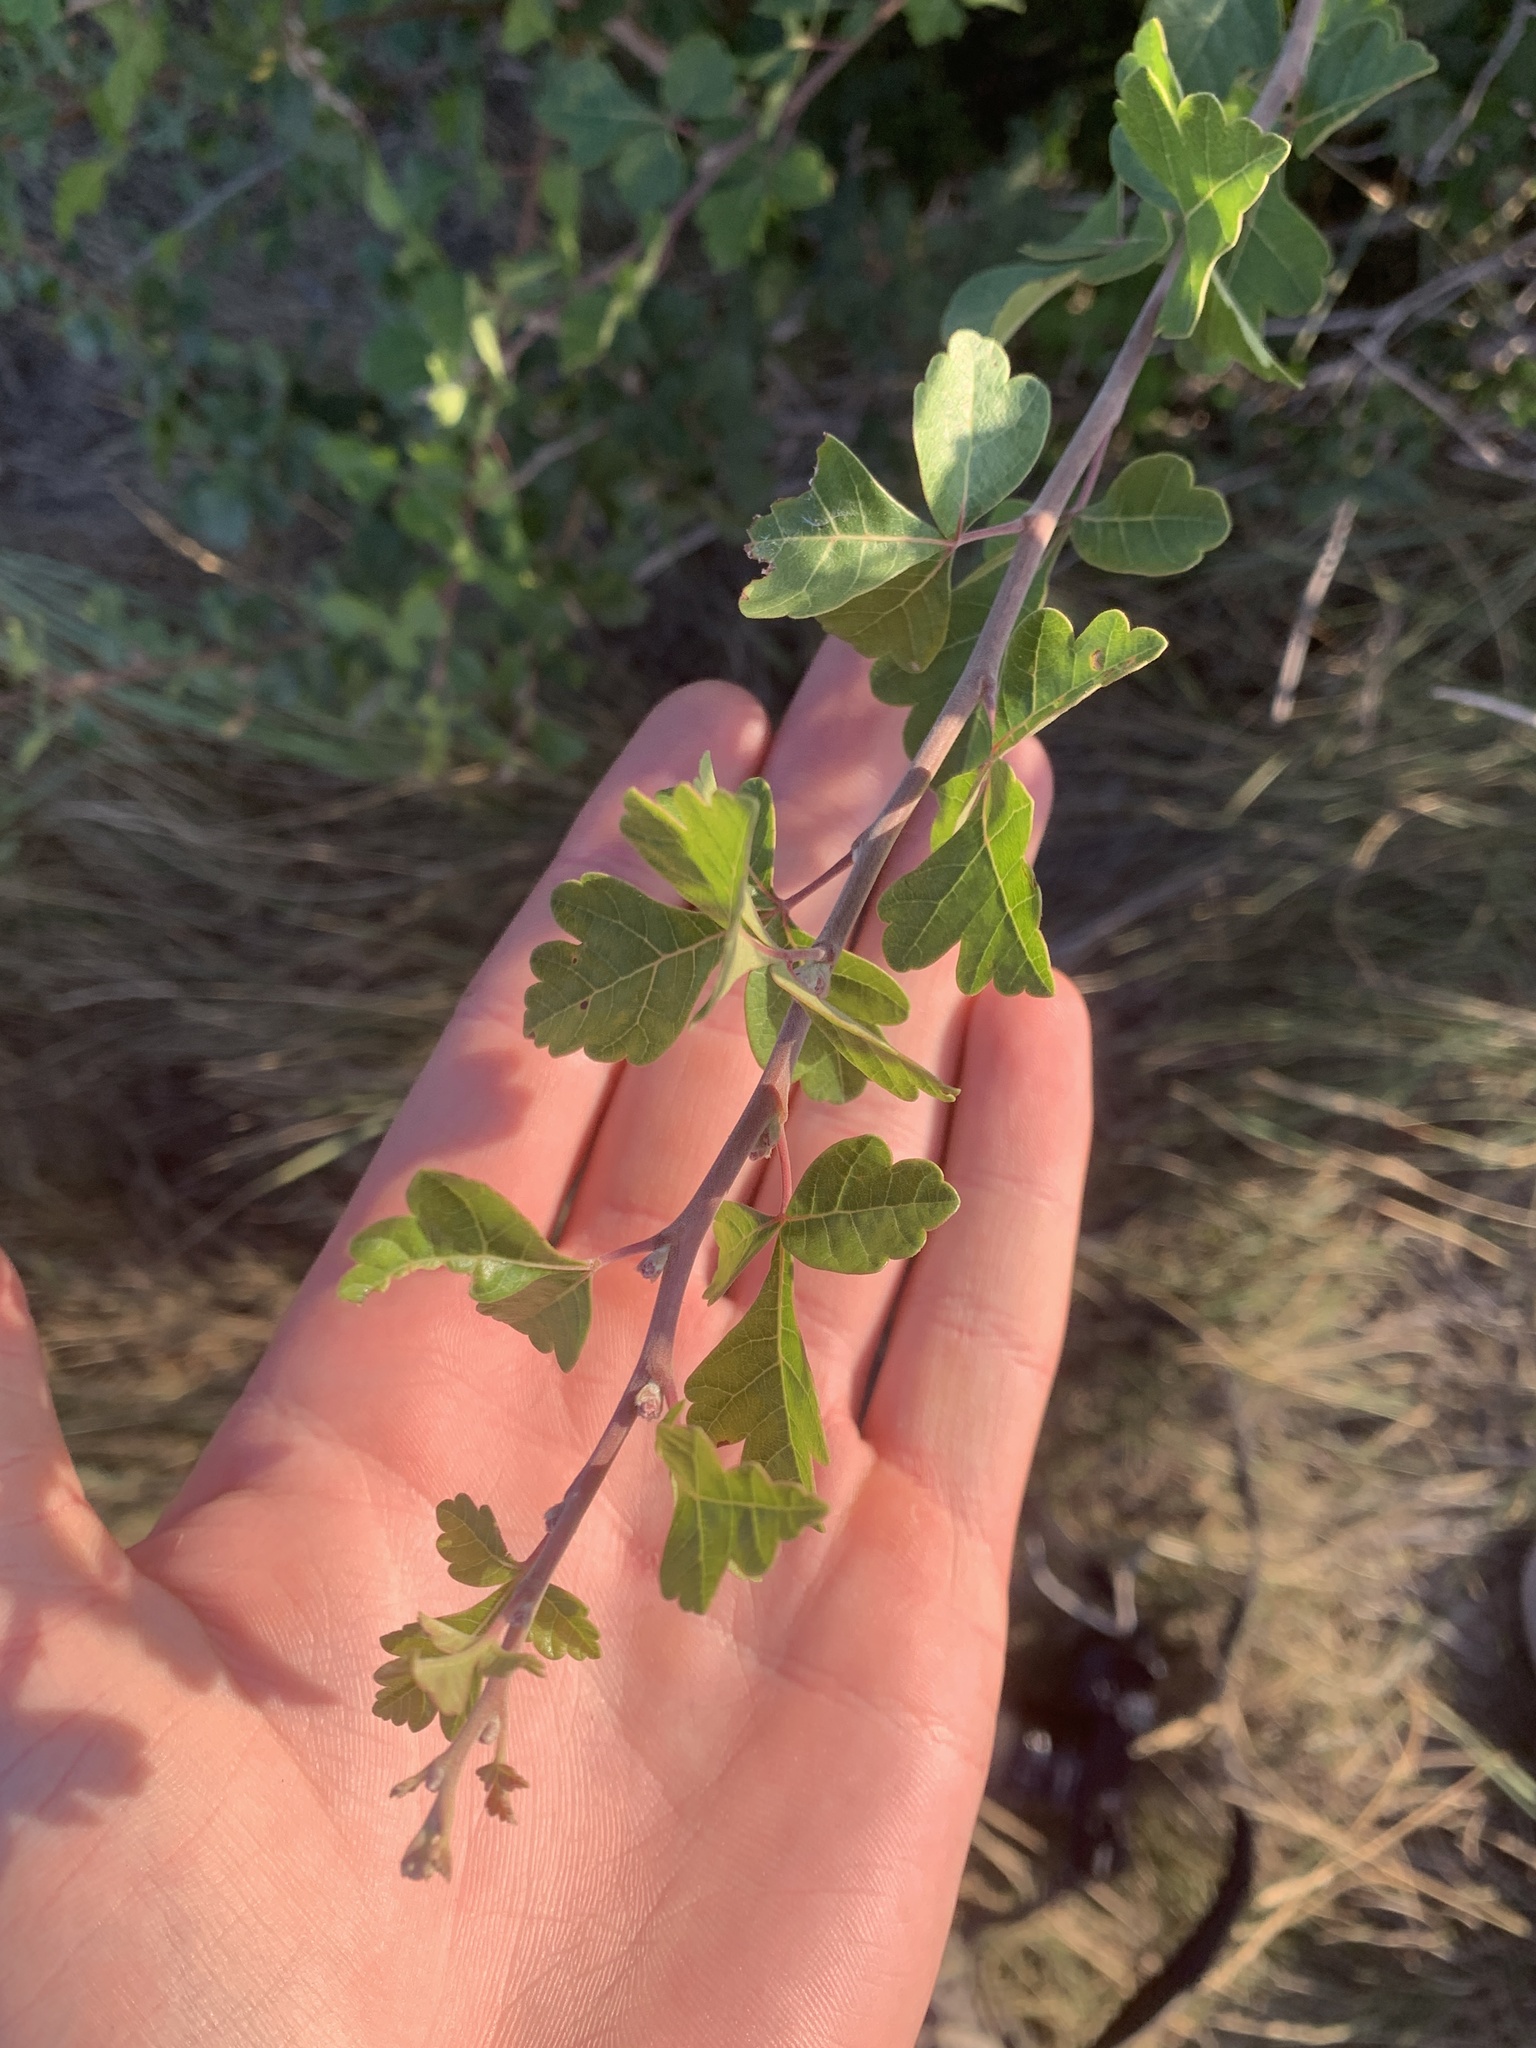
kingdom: Plantae
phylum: Tracheophyta
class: Magnoliopsida
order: Sapindales
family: Anacardiaceae
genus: Rhus
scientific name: Rhus aromatica
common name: Aromatic sumac
